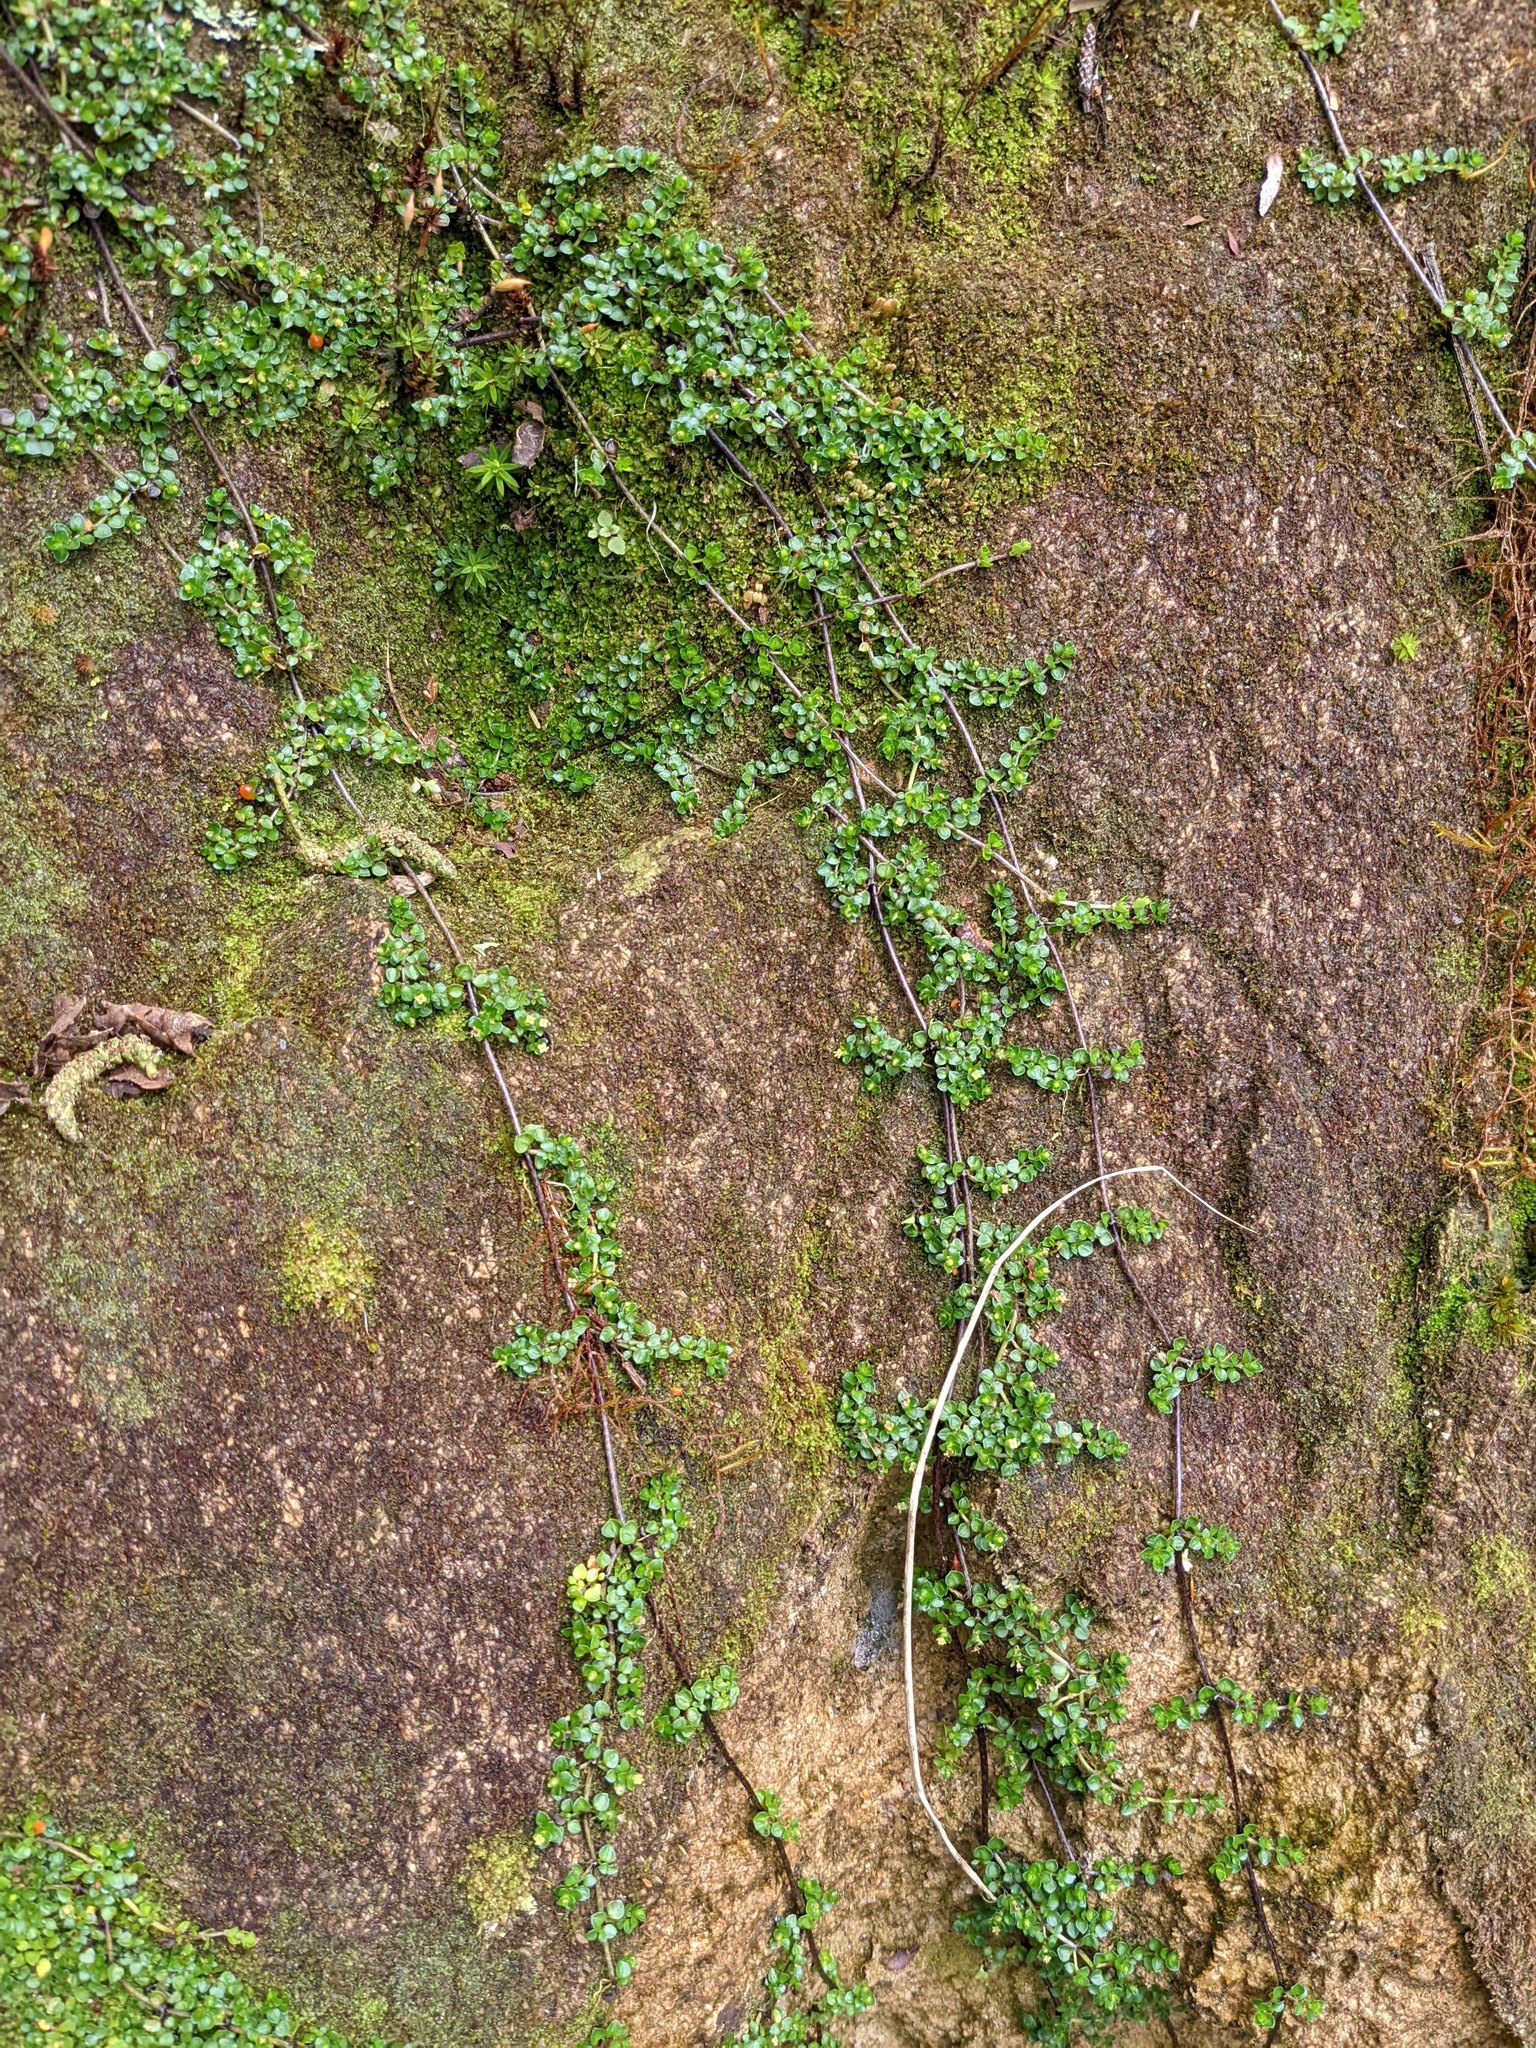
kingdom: Plantae
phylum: Tracheophyta
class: Magnoliopsida
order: Gentianales
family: Rubiaceae
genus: Nertera
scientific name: Nertera granadensis
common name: Beadplant
